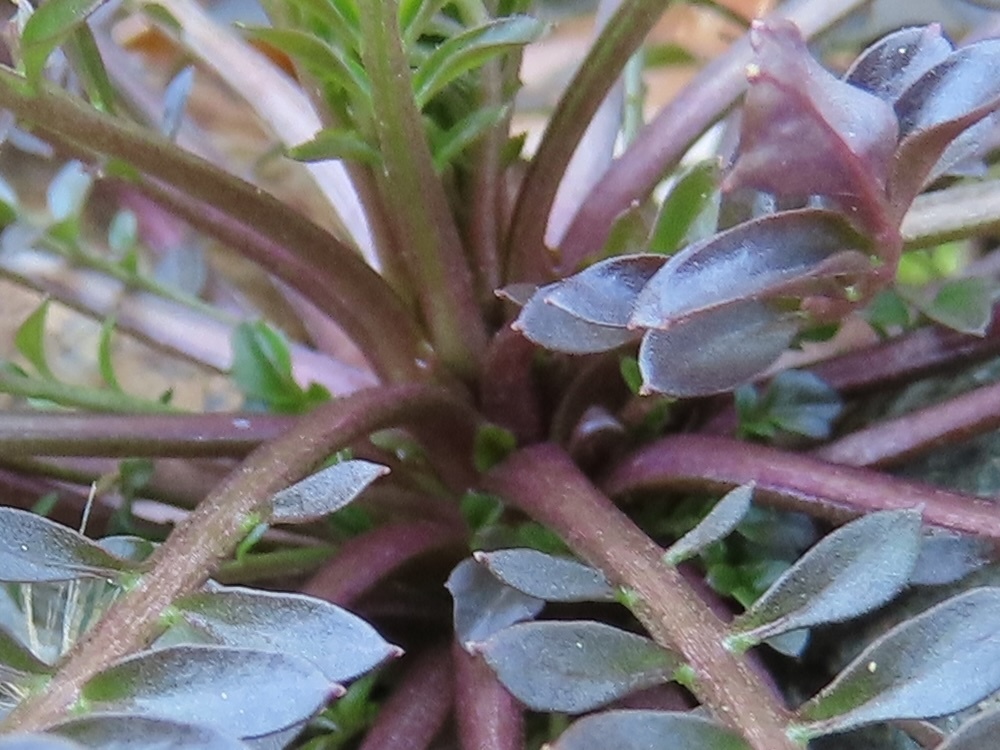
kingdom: Plantae
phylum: Tracheophyta
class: Magnoliopsida
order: Brassicales
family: Brassicaceae
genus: Cardamine
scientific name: Cardamine pensylvanica
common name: Pennsylvania bittercress
